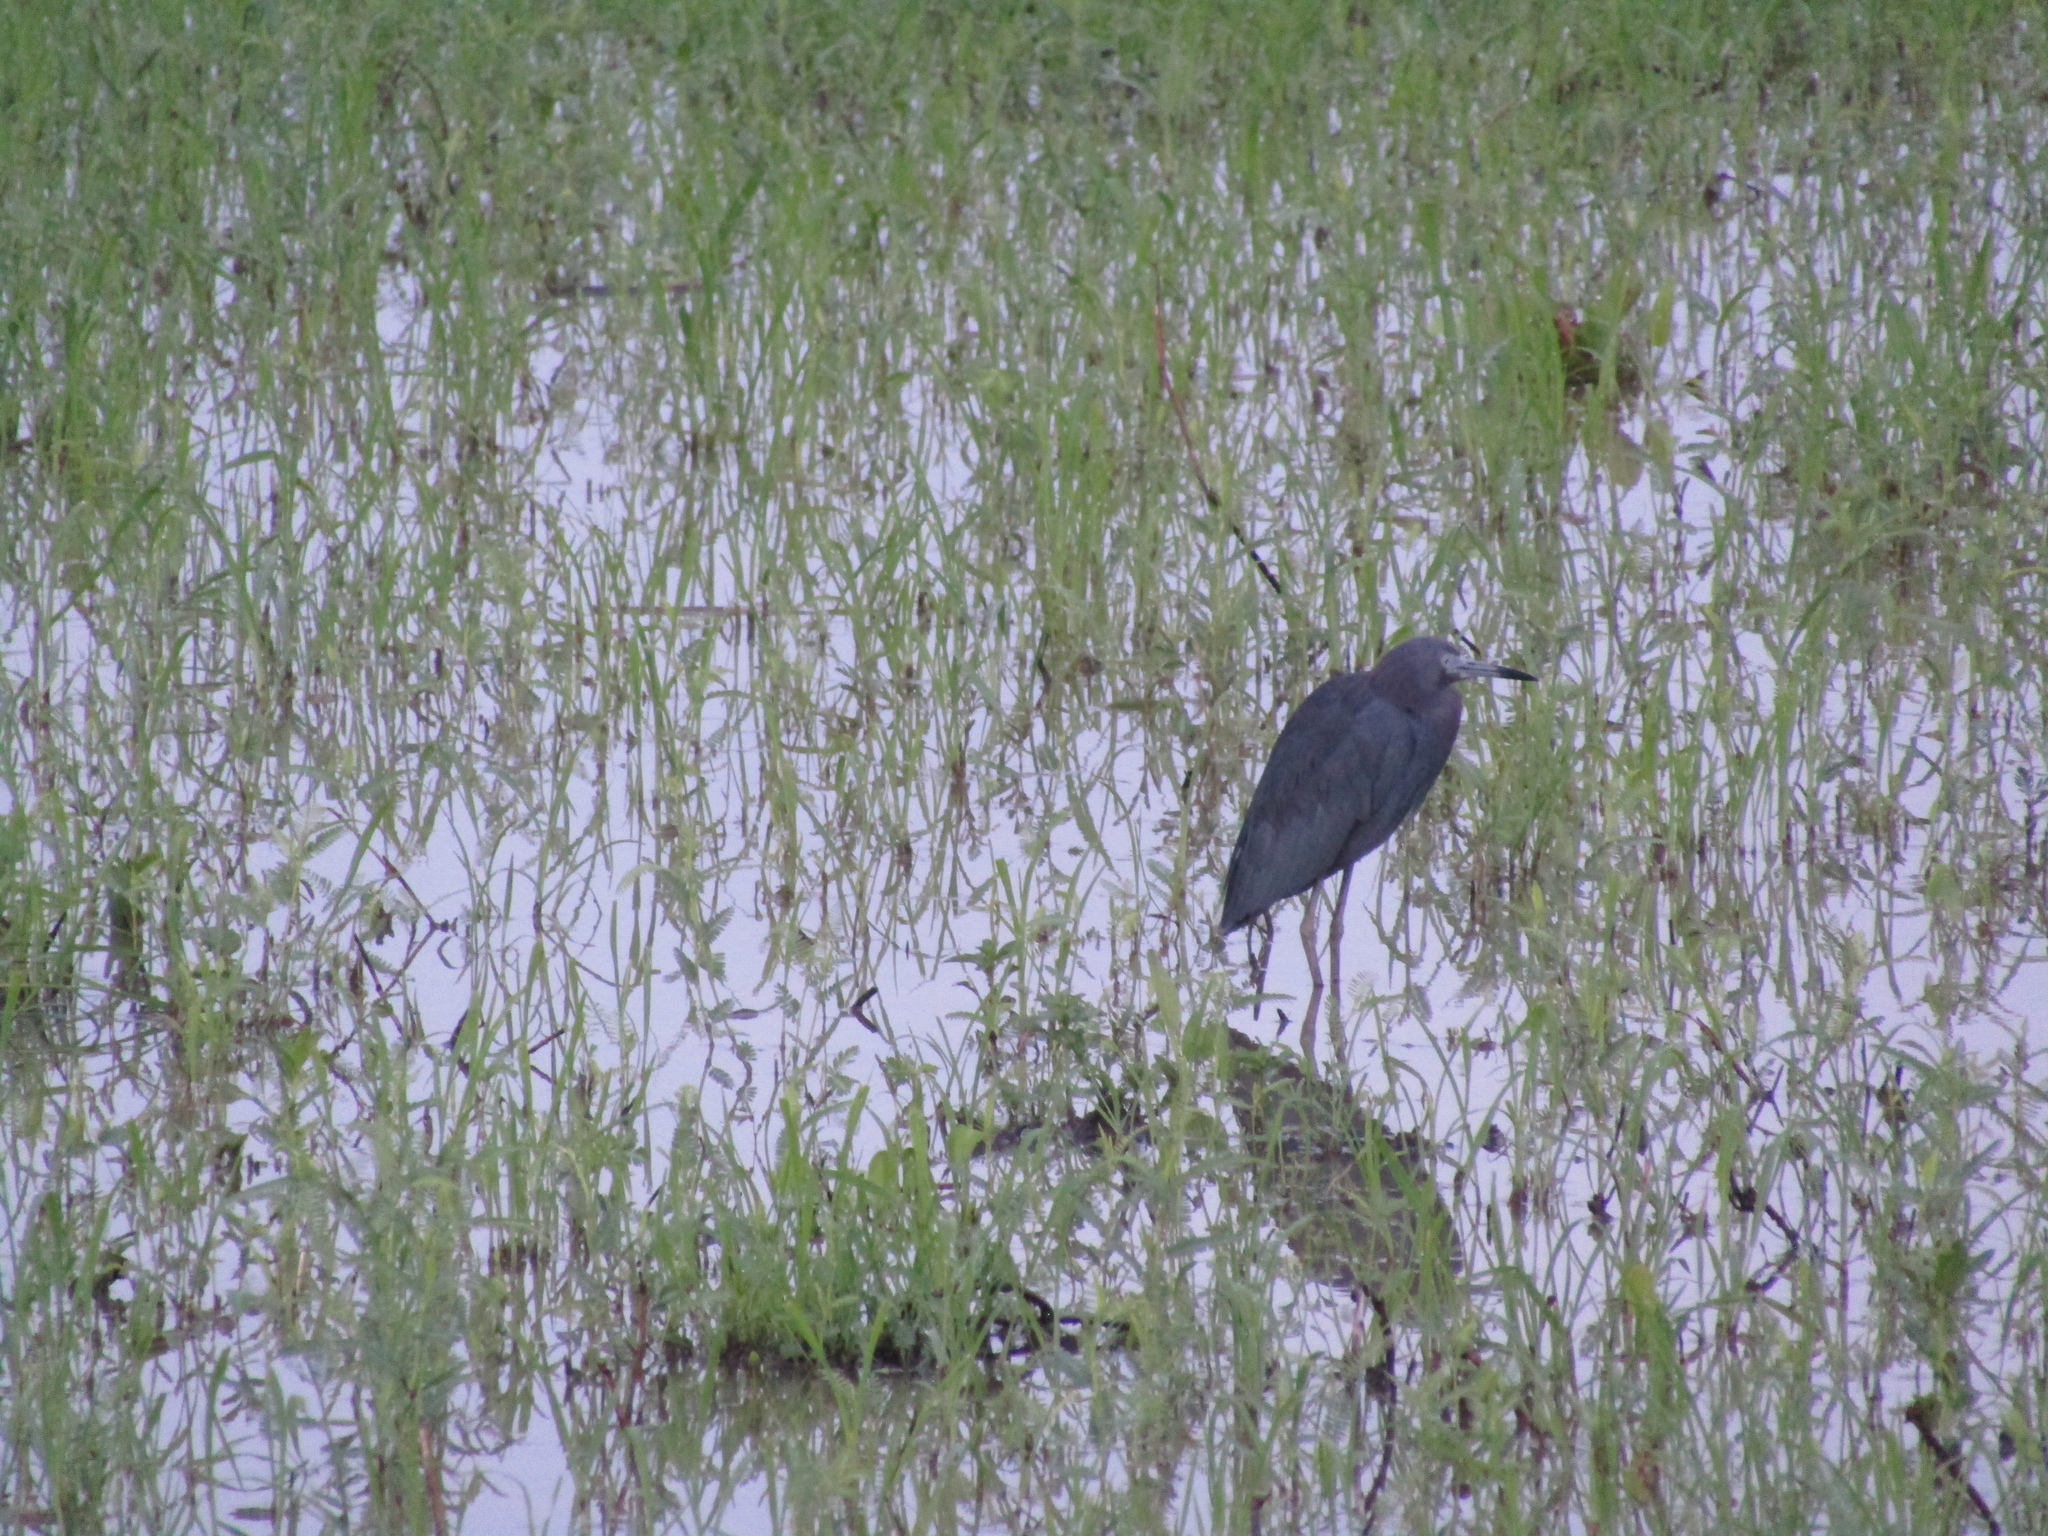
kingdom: Animalia
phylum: Chordata
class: Aves
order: Pelecaniformes
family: Ardeidae
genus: Egretta
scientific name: Egretta caerulea
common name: Little blue heron
